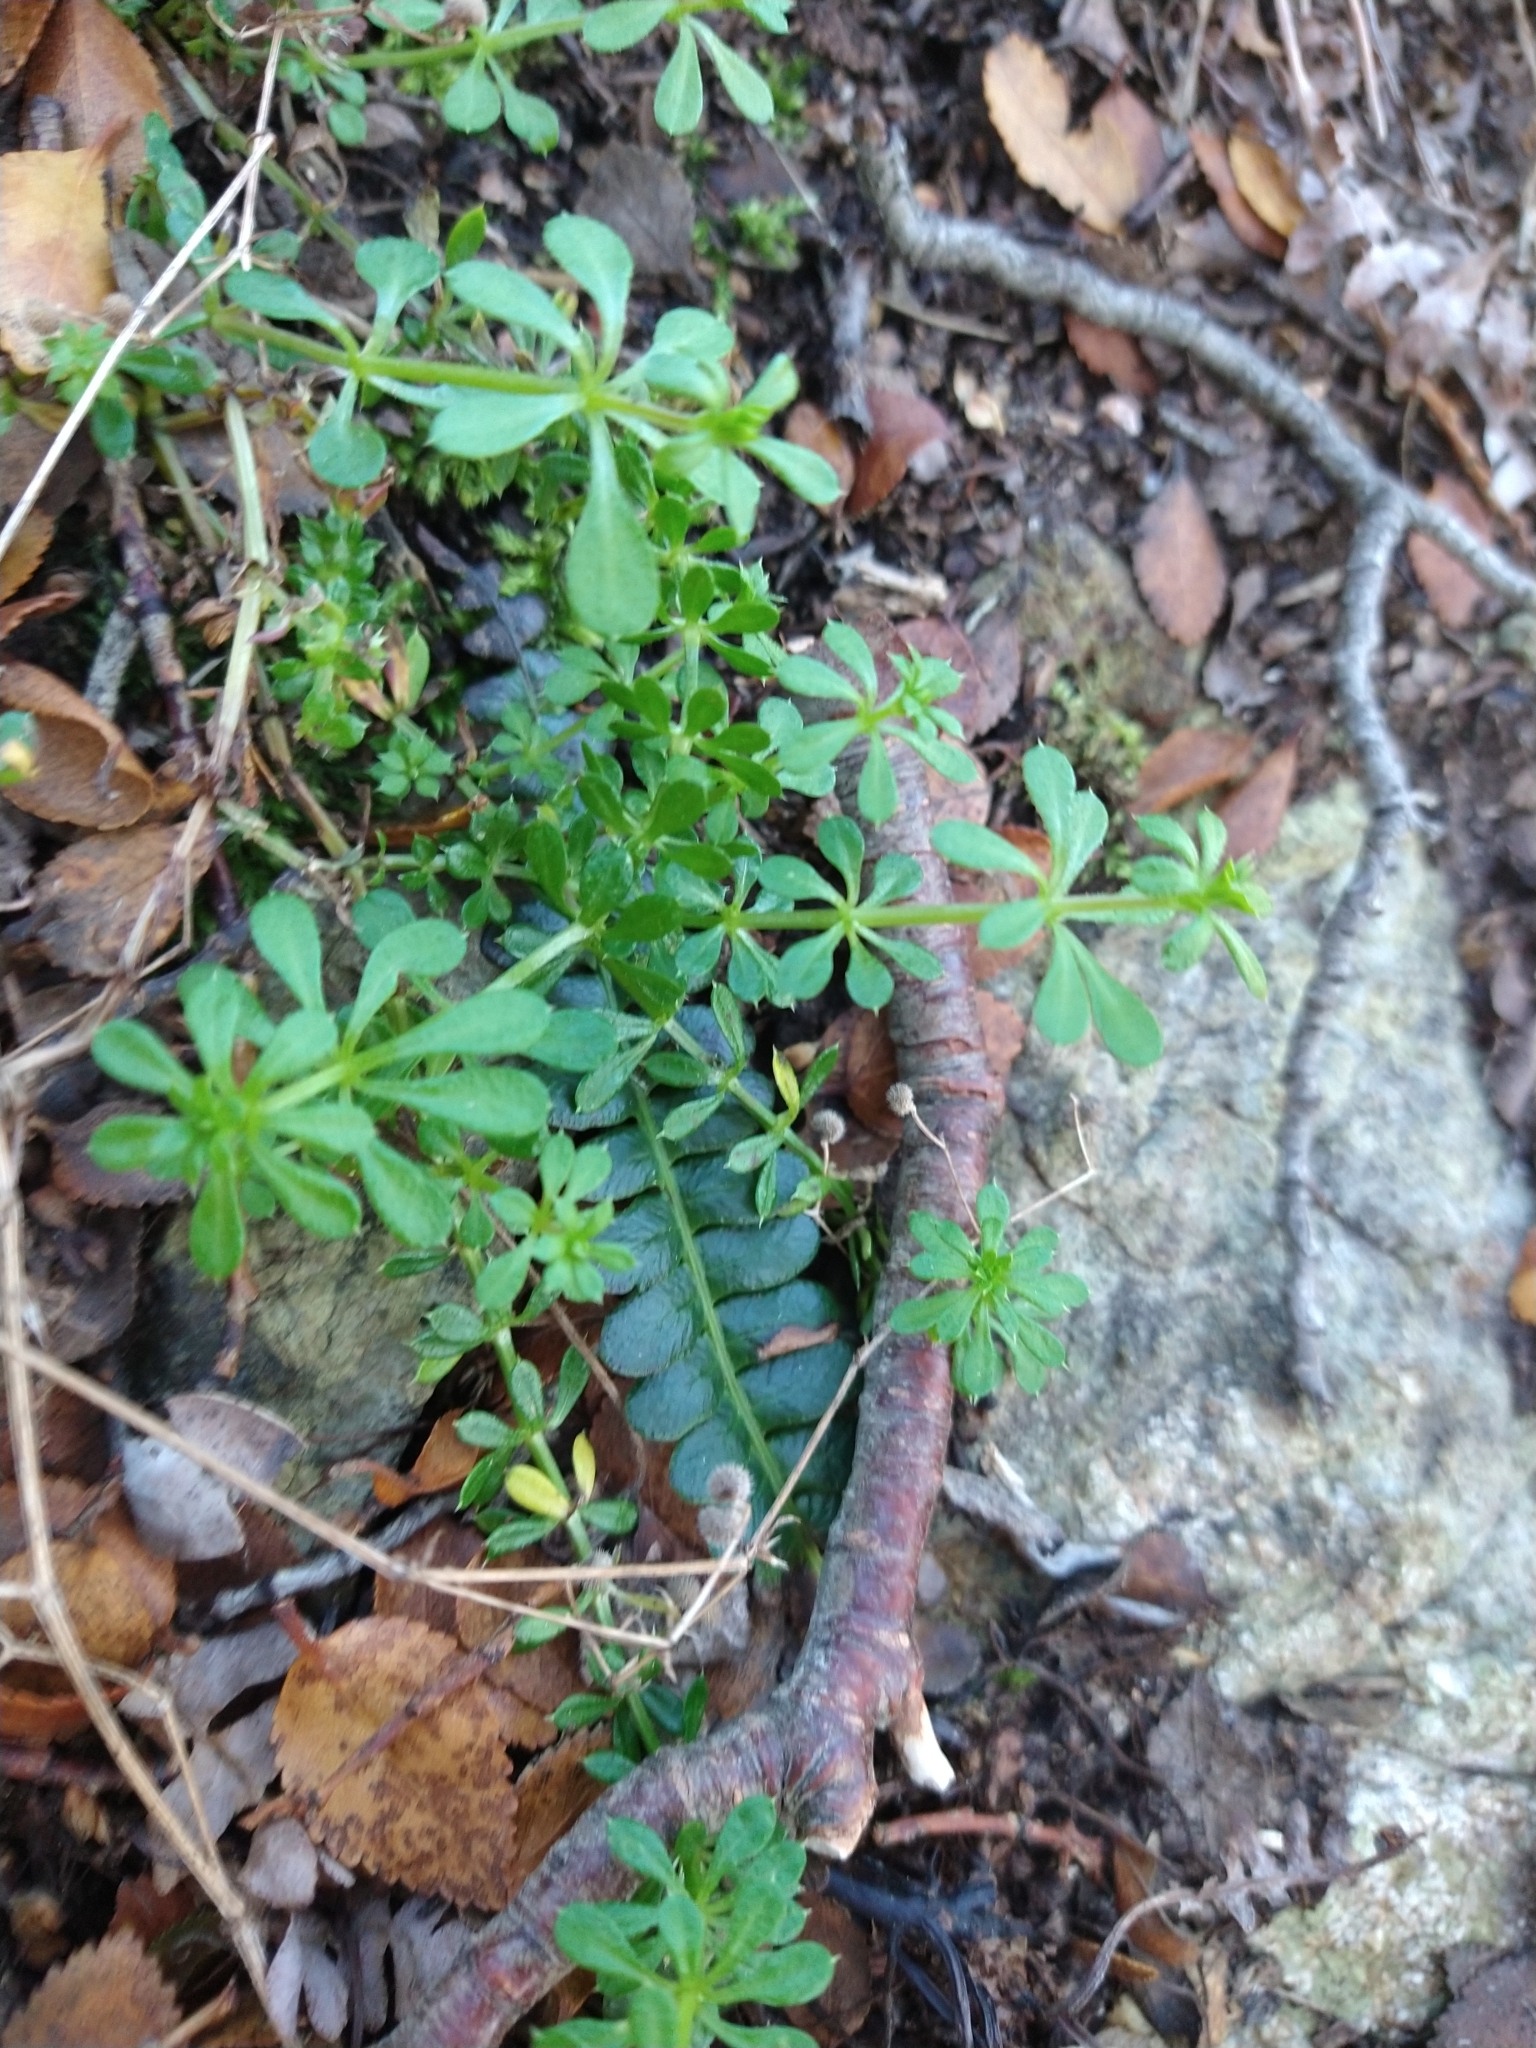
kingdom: Plantae
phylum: Tracheophyta
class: Magnoliopsida
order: Gentianales
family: Rubiaceae
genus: Galium
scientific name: Galium aparine
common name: Cleavers
